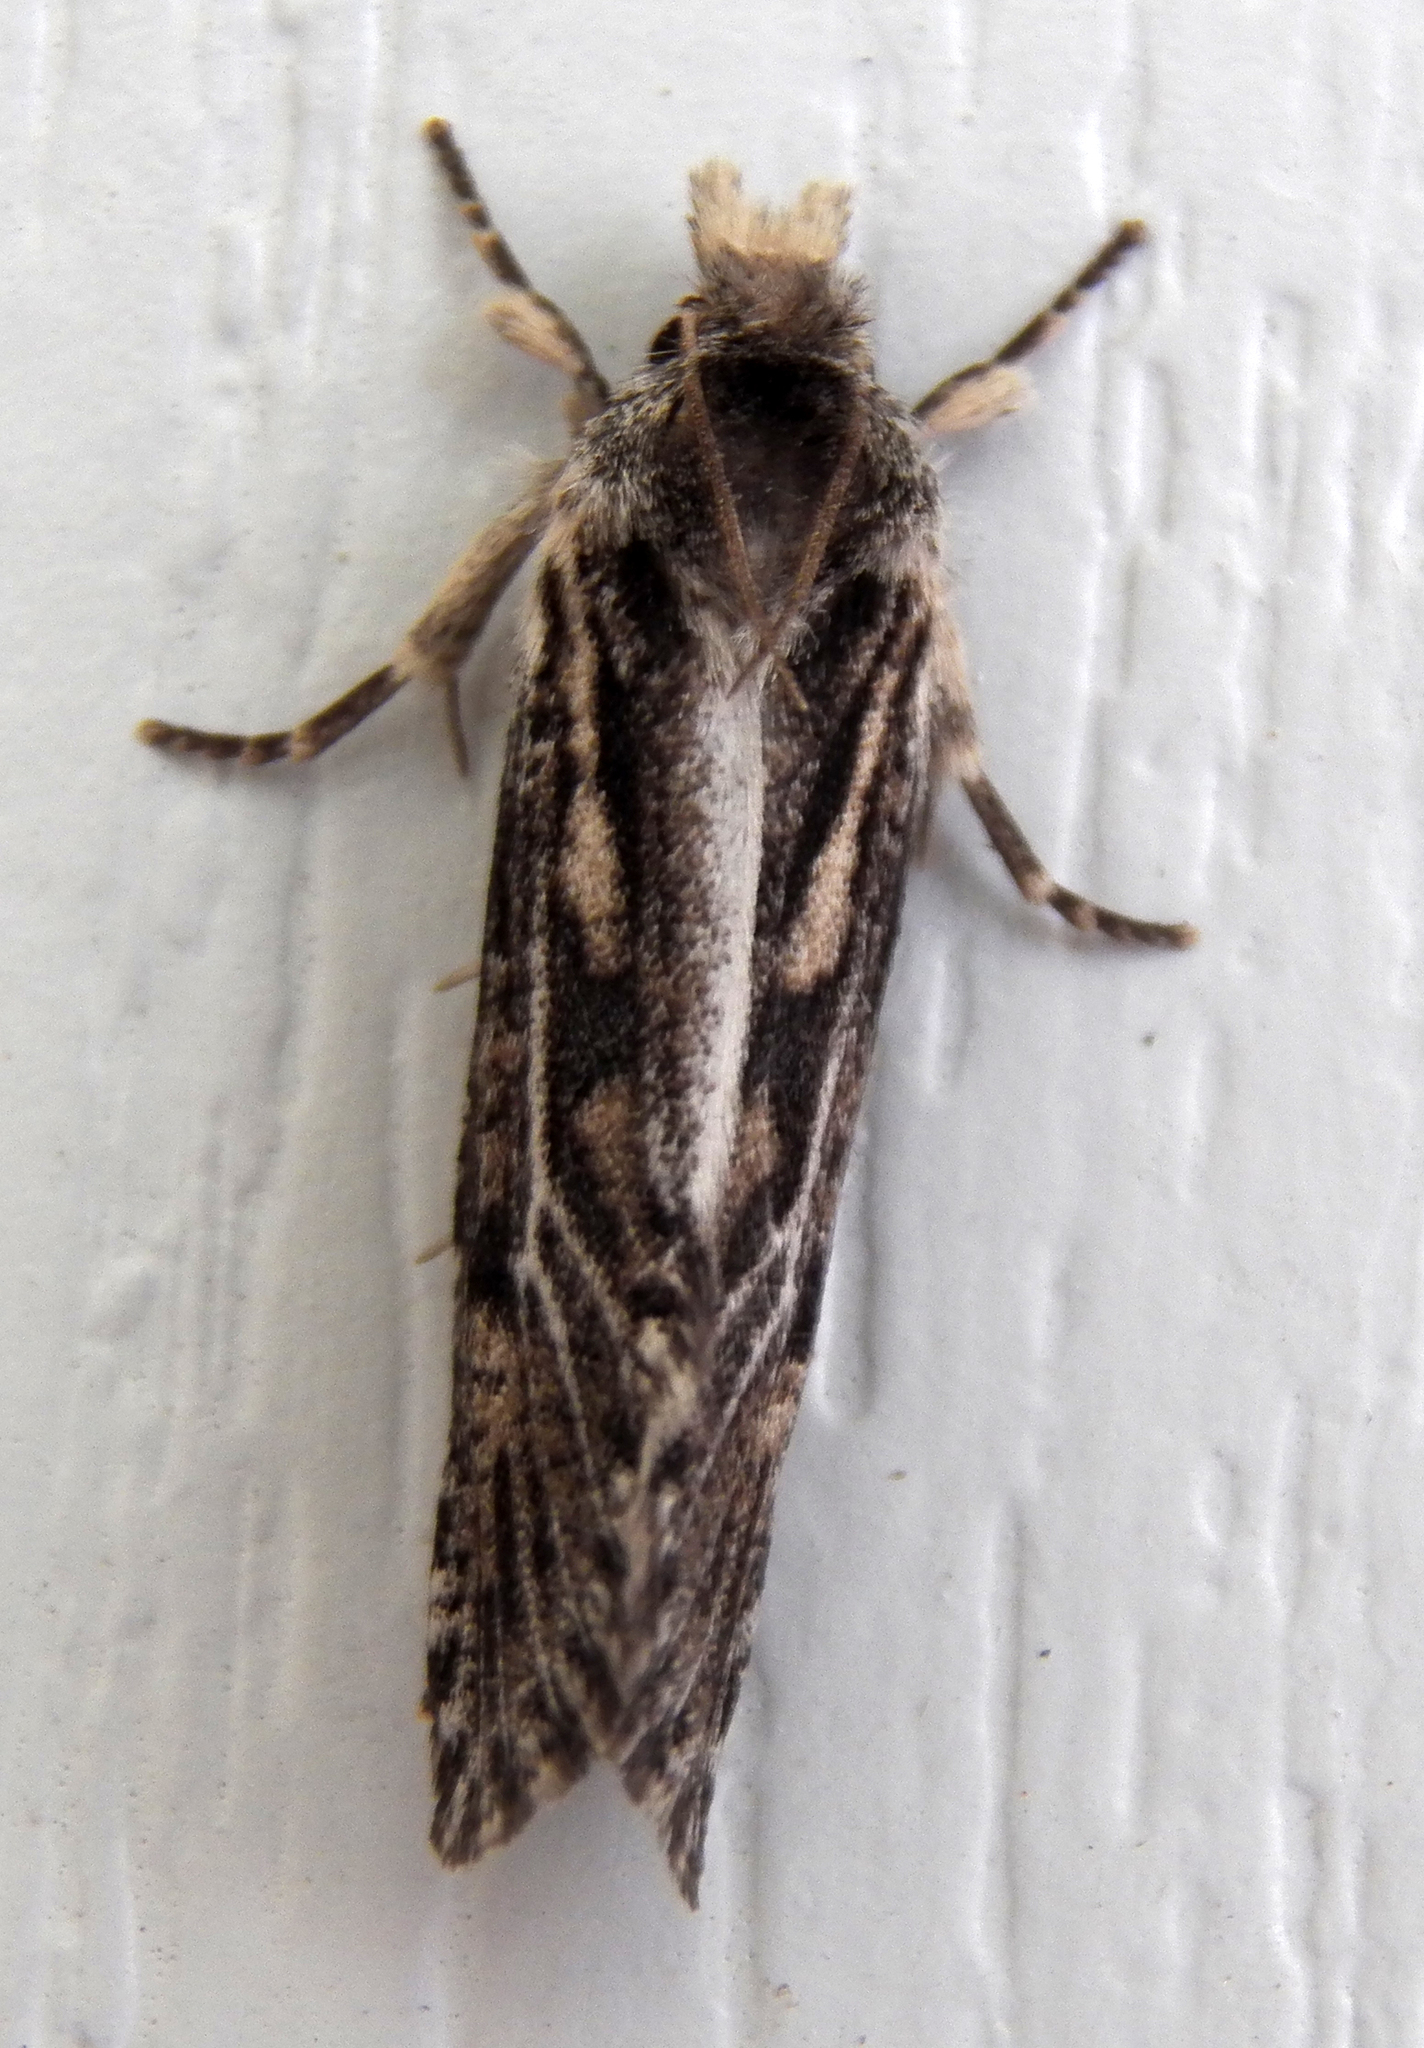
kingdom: Animalia
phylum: Arthropoda
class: Insecta
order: Lepidoptera
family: Tineidae
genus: Acrolophus
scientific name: Acrolophus popeanella
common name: Clemens' grass tubeworm moth
